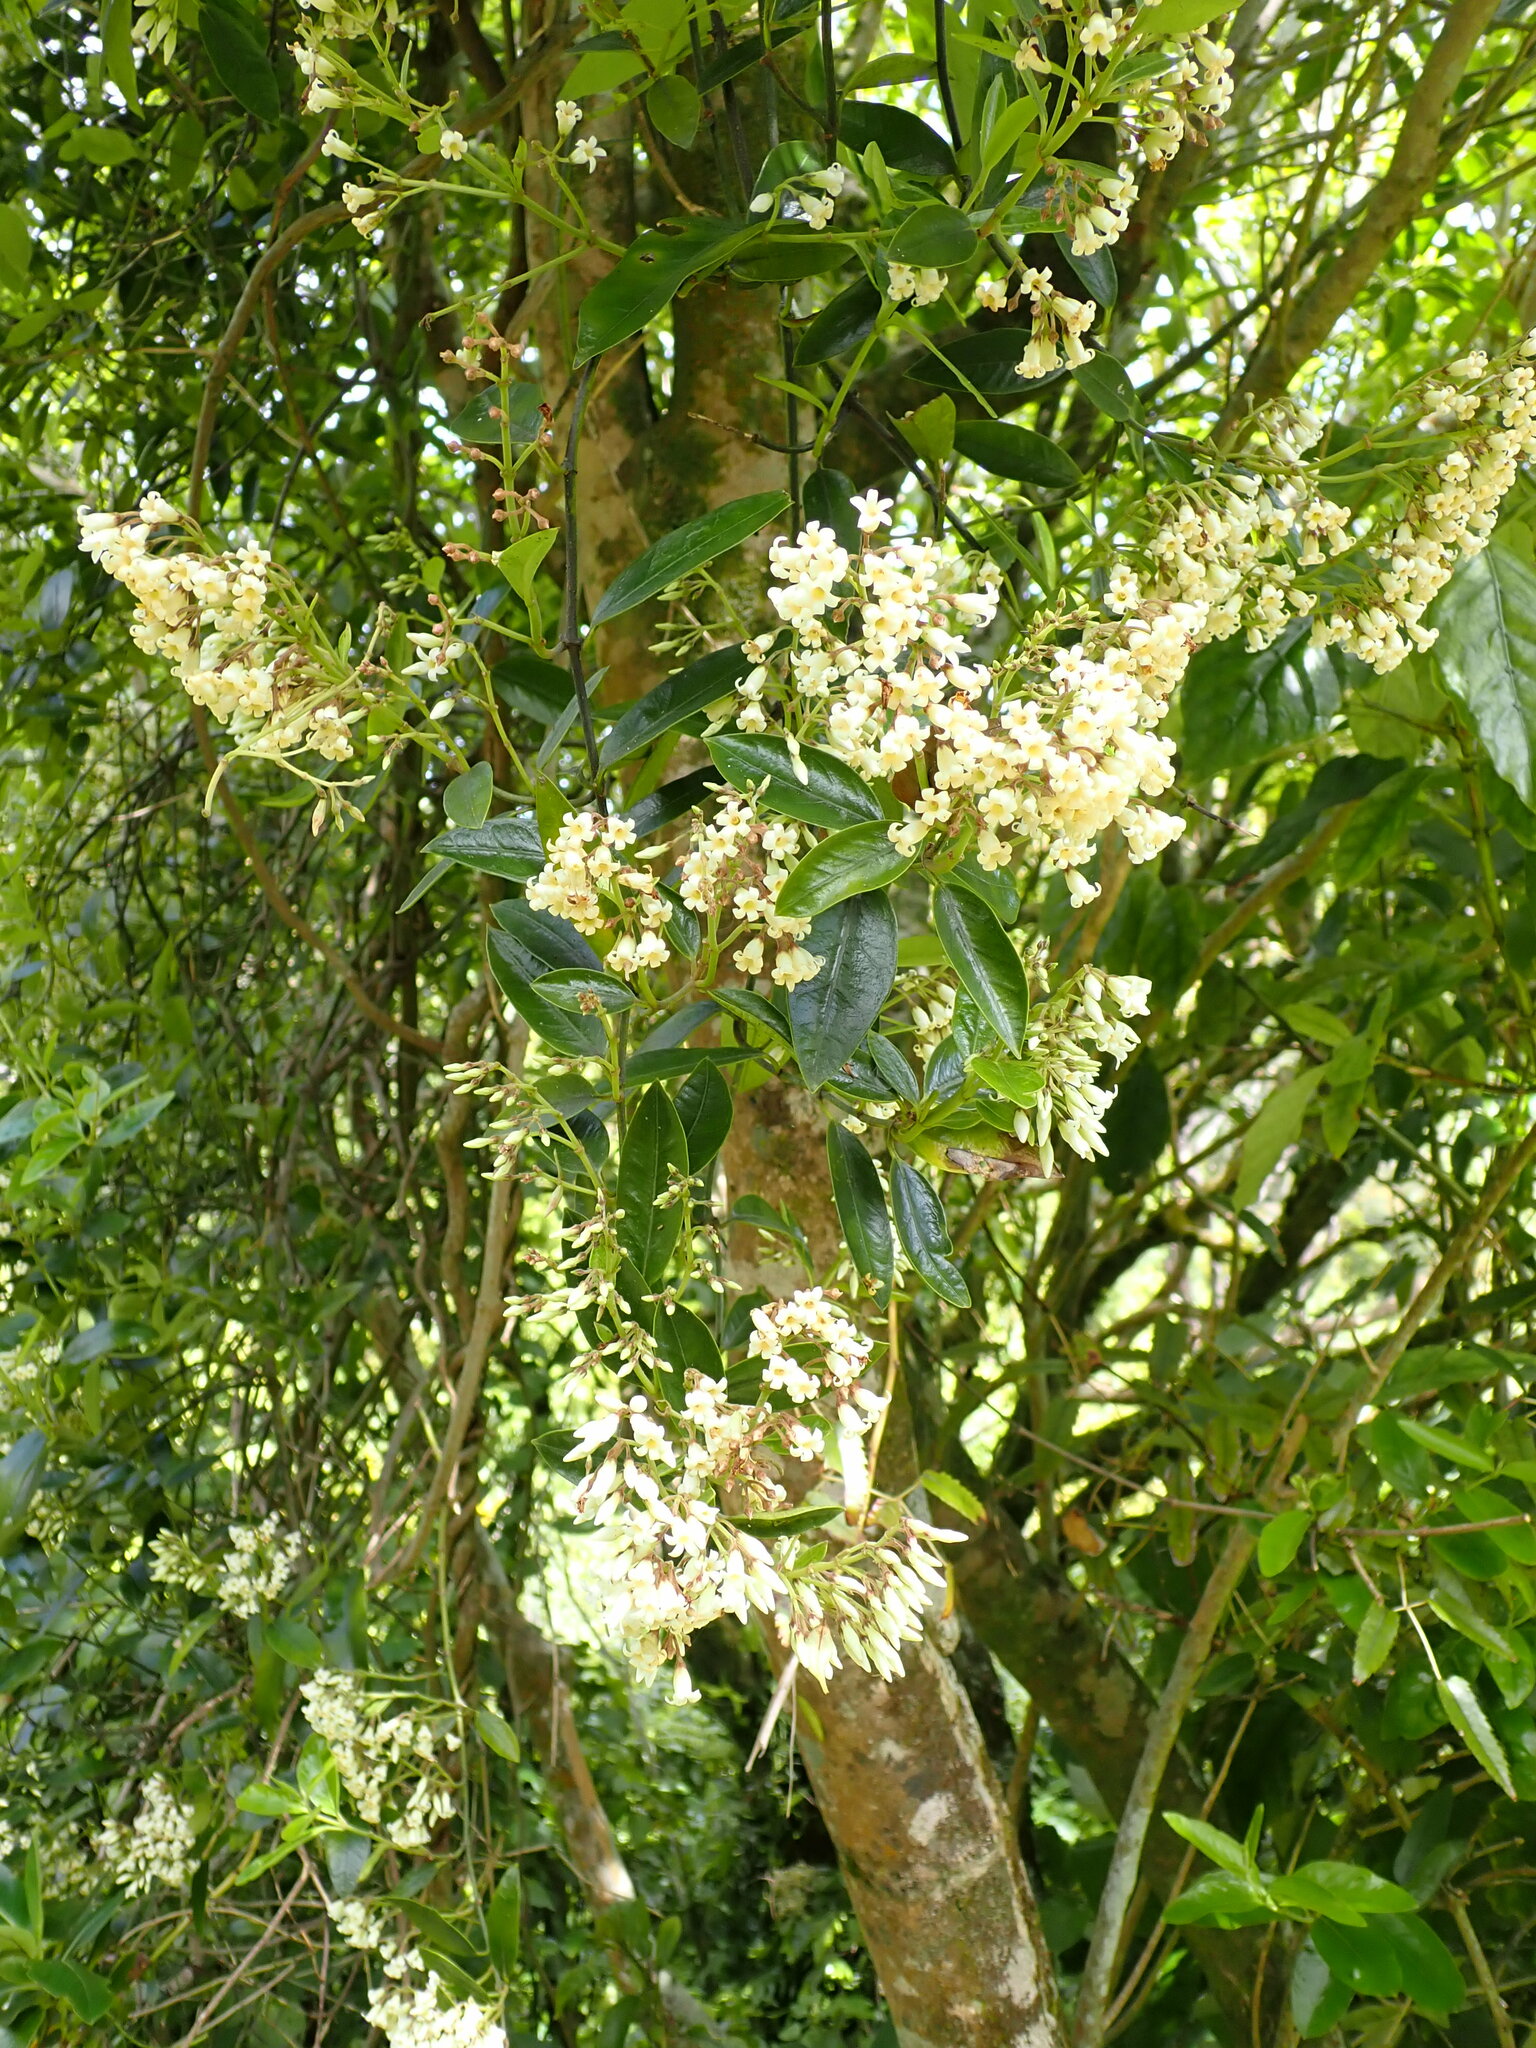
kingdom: Plantae
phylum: Tracheophyta
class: Magnoliopsida
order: Gentianales
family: Apocynaceae
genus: Parsonsia
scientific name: Parsonsia heterophylla
